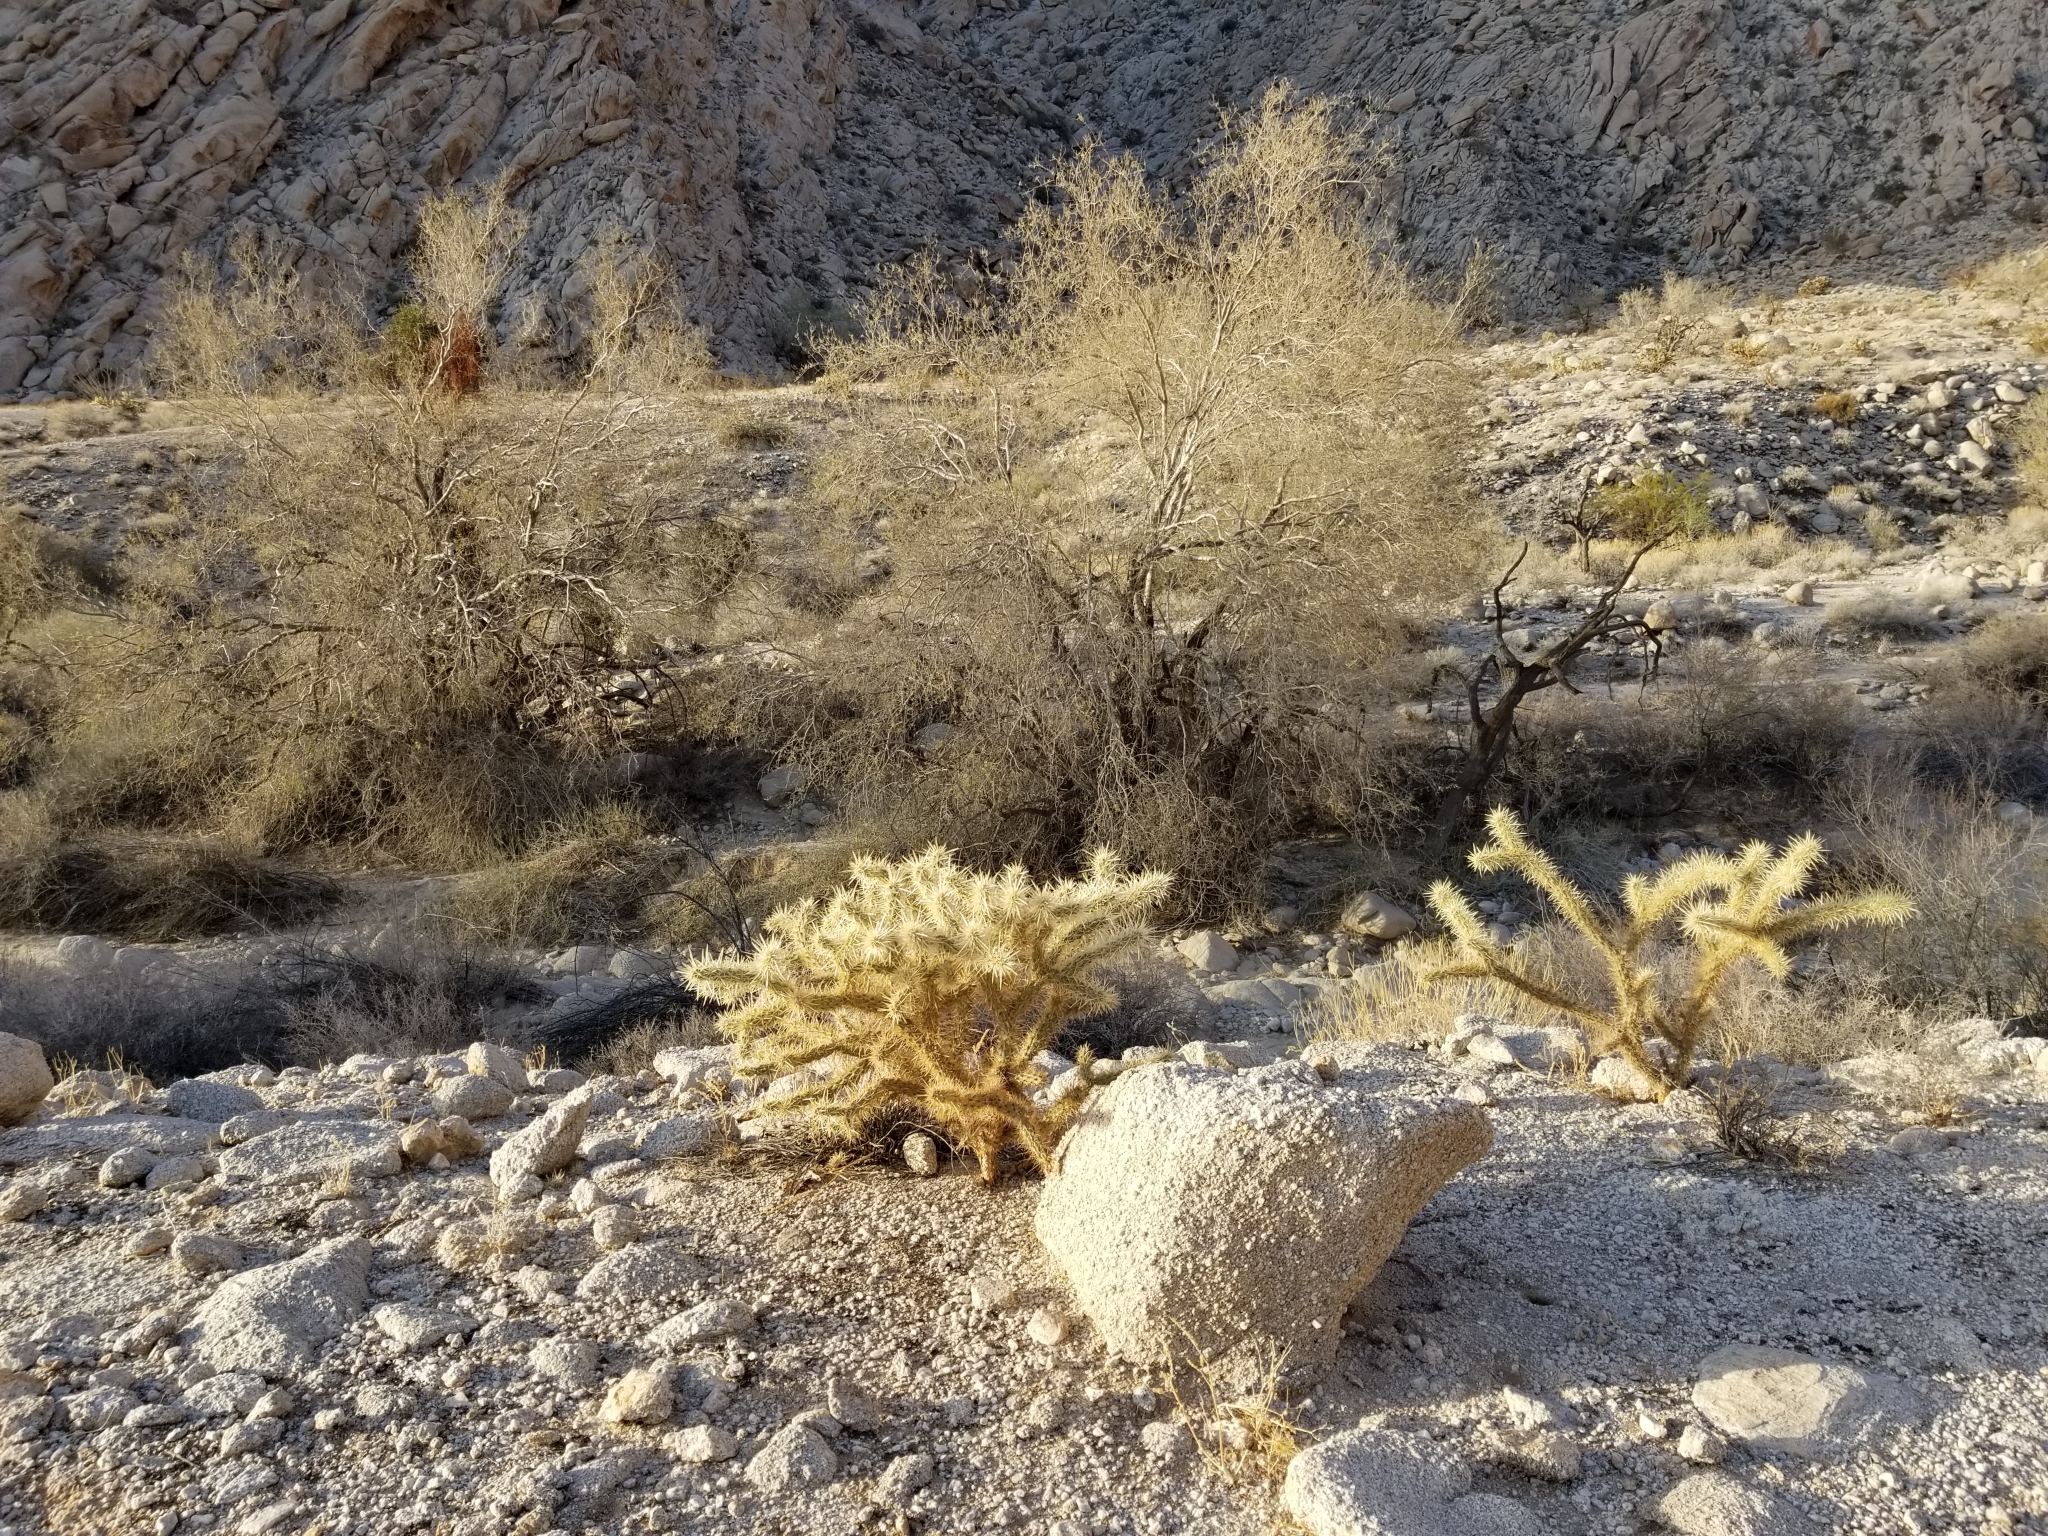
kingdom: Plantae
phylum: Tracheophyta
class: Magnoliopsida
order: Caryophyllales
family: Cactaceae
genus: Cylindropuntia
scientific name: Cylindropuntia echinocarpa
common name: Ground cholla
